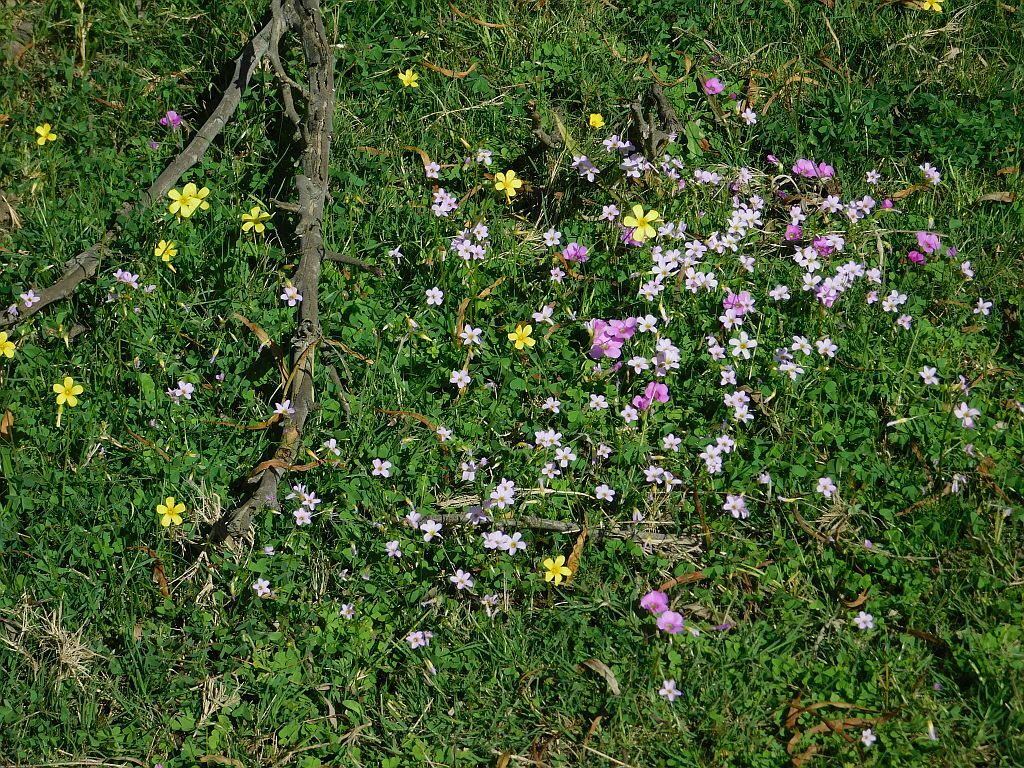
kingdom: Plantae
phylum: Tracheophyta
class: Magnoliopsida
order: Oxalidales
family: Oxalidaceae
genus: Oxalis
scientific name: Oxalis pes-caprae
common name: Bermuda-buttercup
